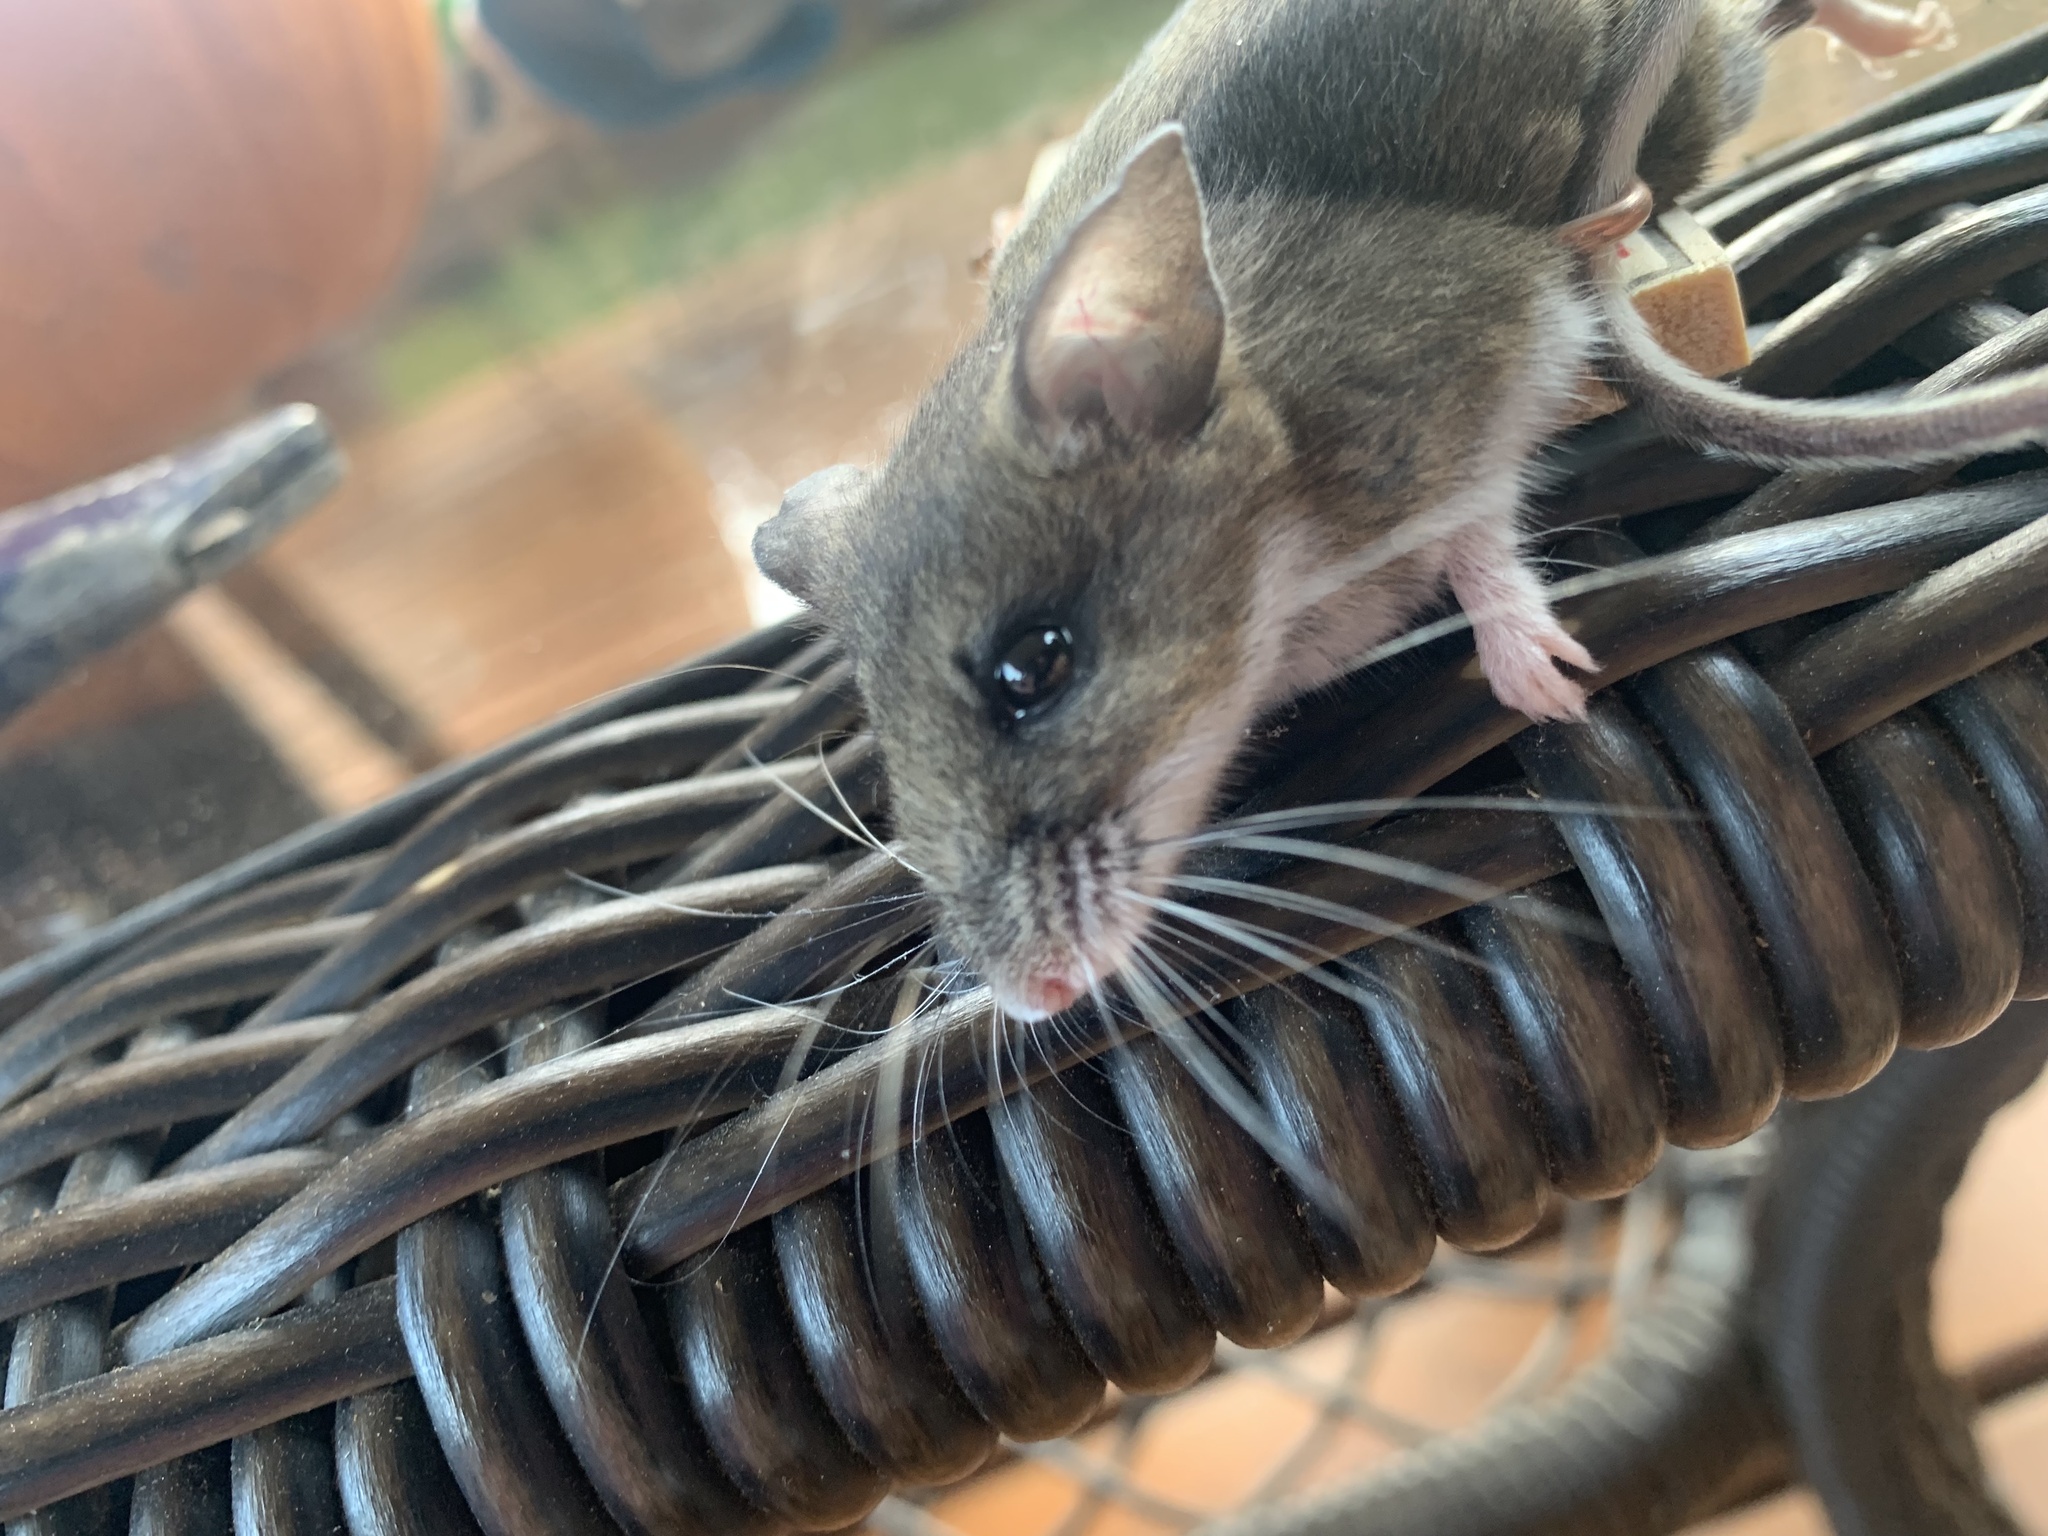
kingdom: Animalia
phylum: Chordata
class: Mammalia
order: Rodentia
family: Cricetidae
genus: Peromyscus
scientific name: Peromyscus maniculatus
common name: Deer mouse
